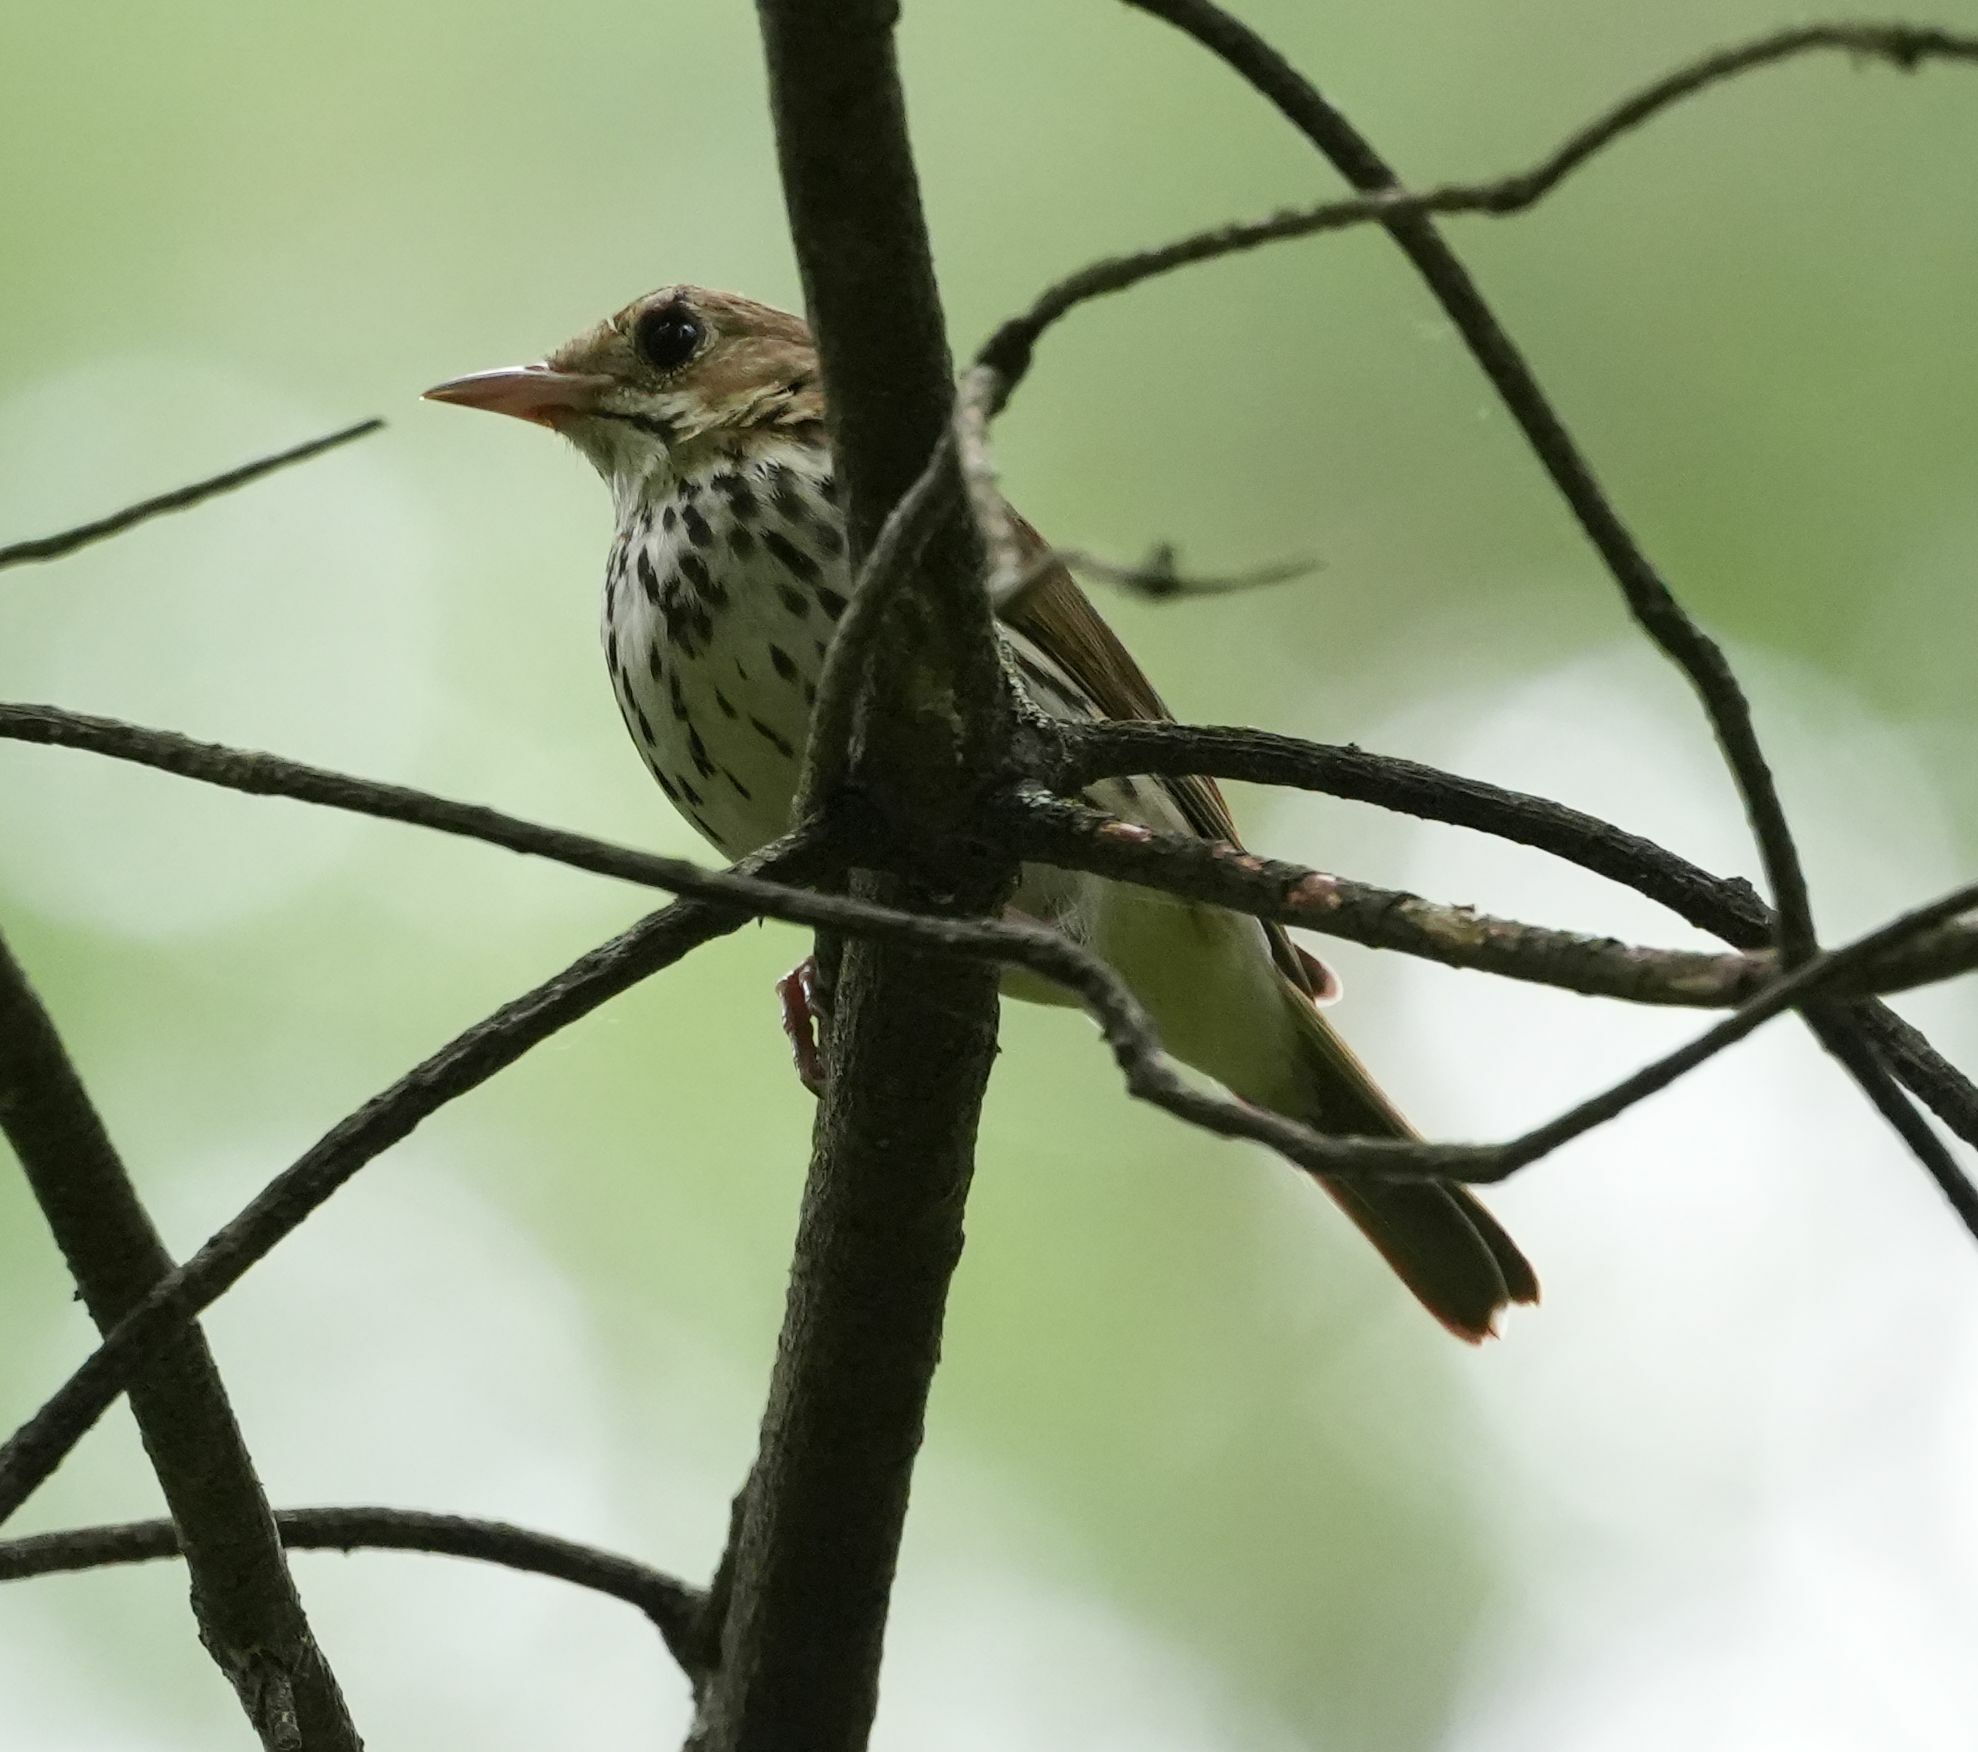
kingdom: Animalia
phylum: Chordata
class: Aves
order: Passeriformes
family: Parulidae
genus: Seiurus
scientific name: Seiurus aurocapilla
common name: Ovenbird
